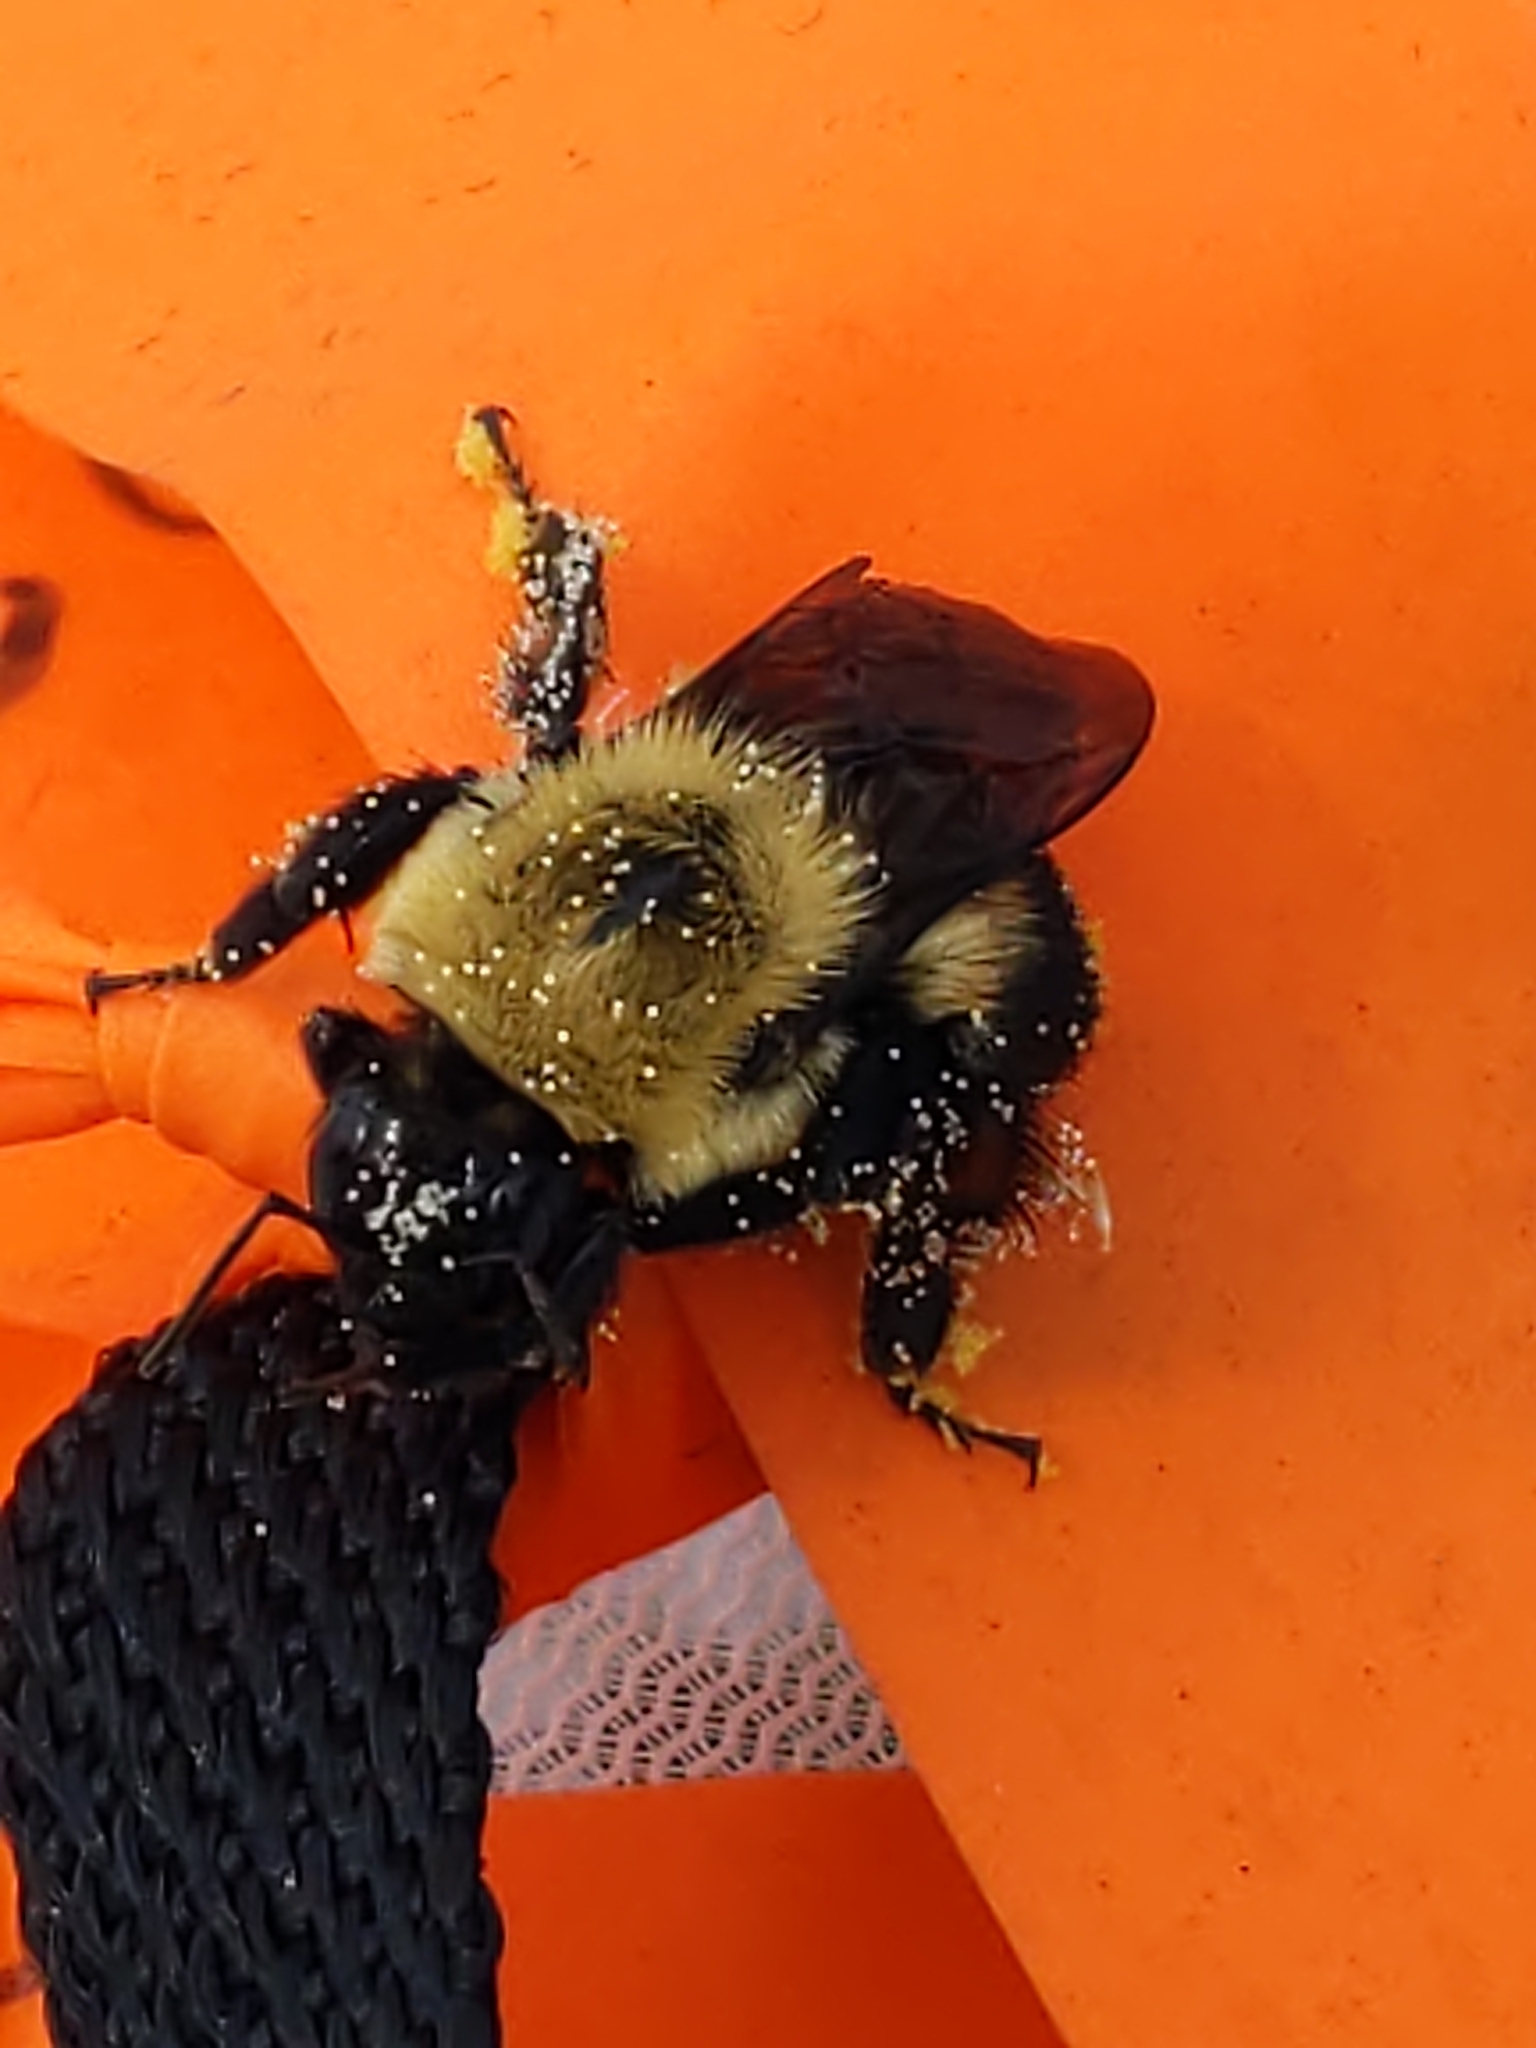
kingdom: Animalia
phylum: Arthropoda
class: Insecta
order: Hymenoptera
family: Apidae
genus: Bombus
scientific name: Bombus griseocollis
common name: Brown-belted bumble bee
